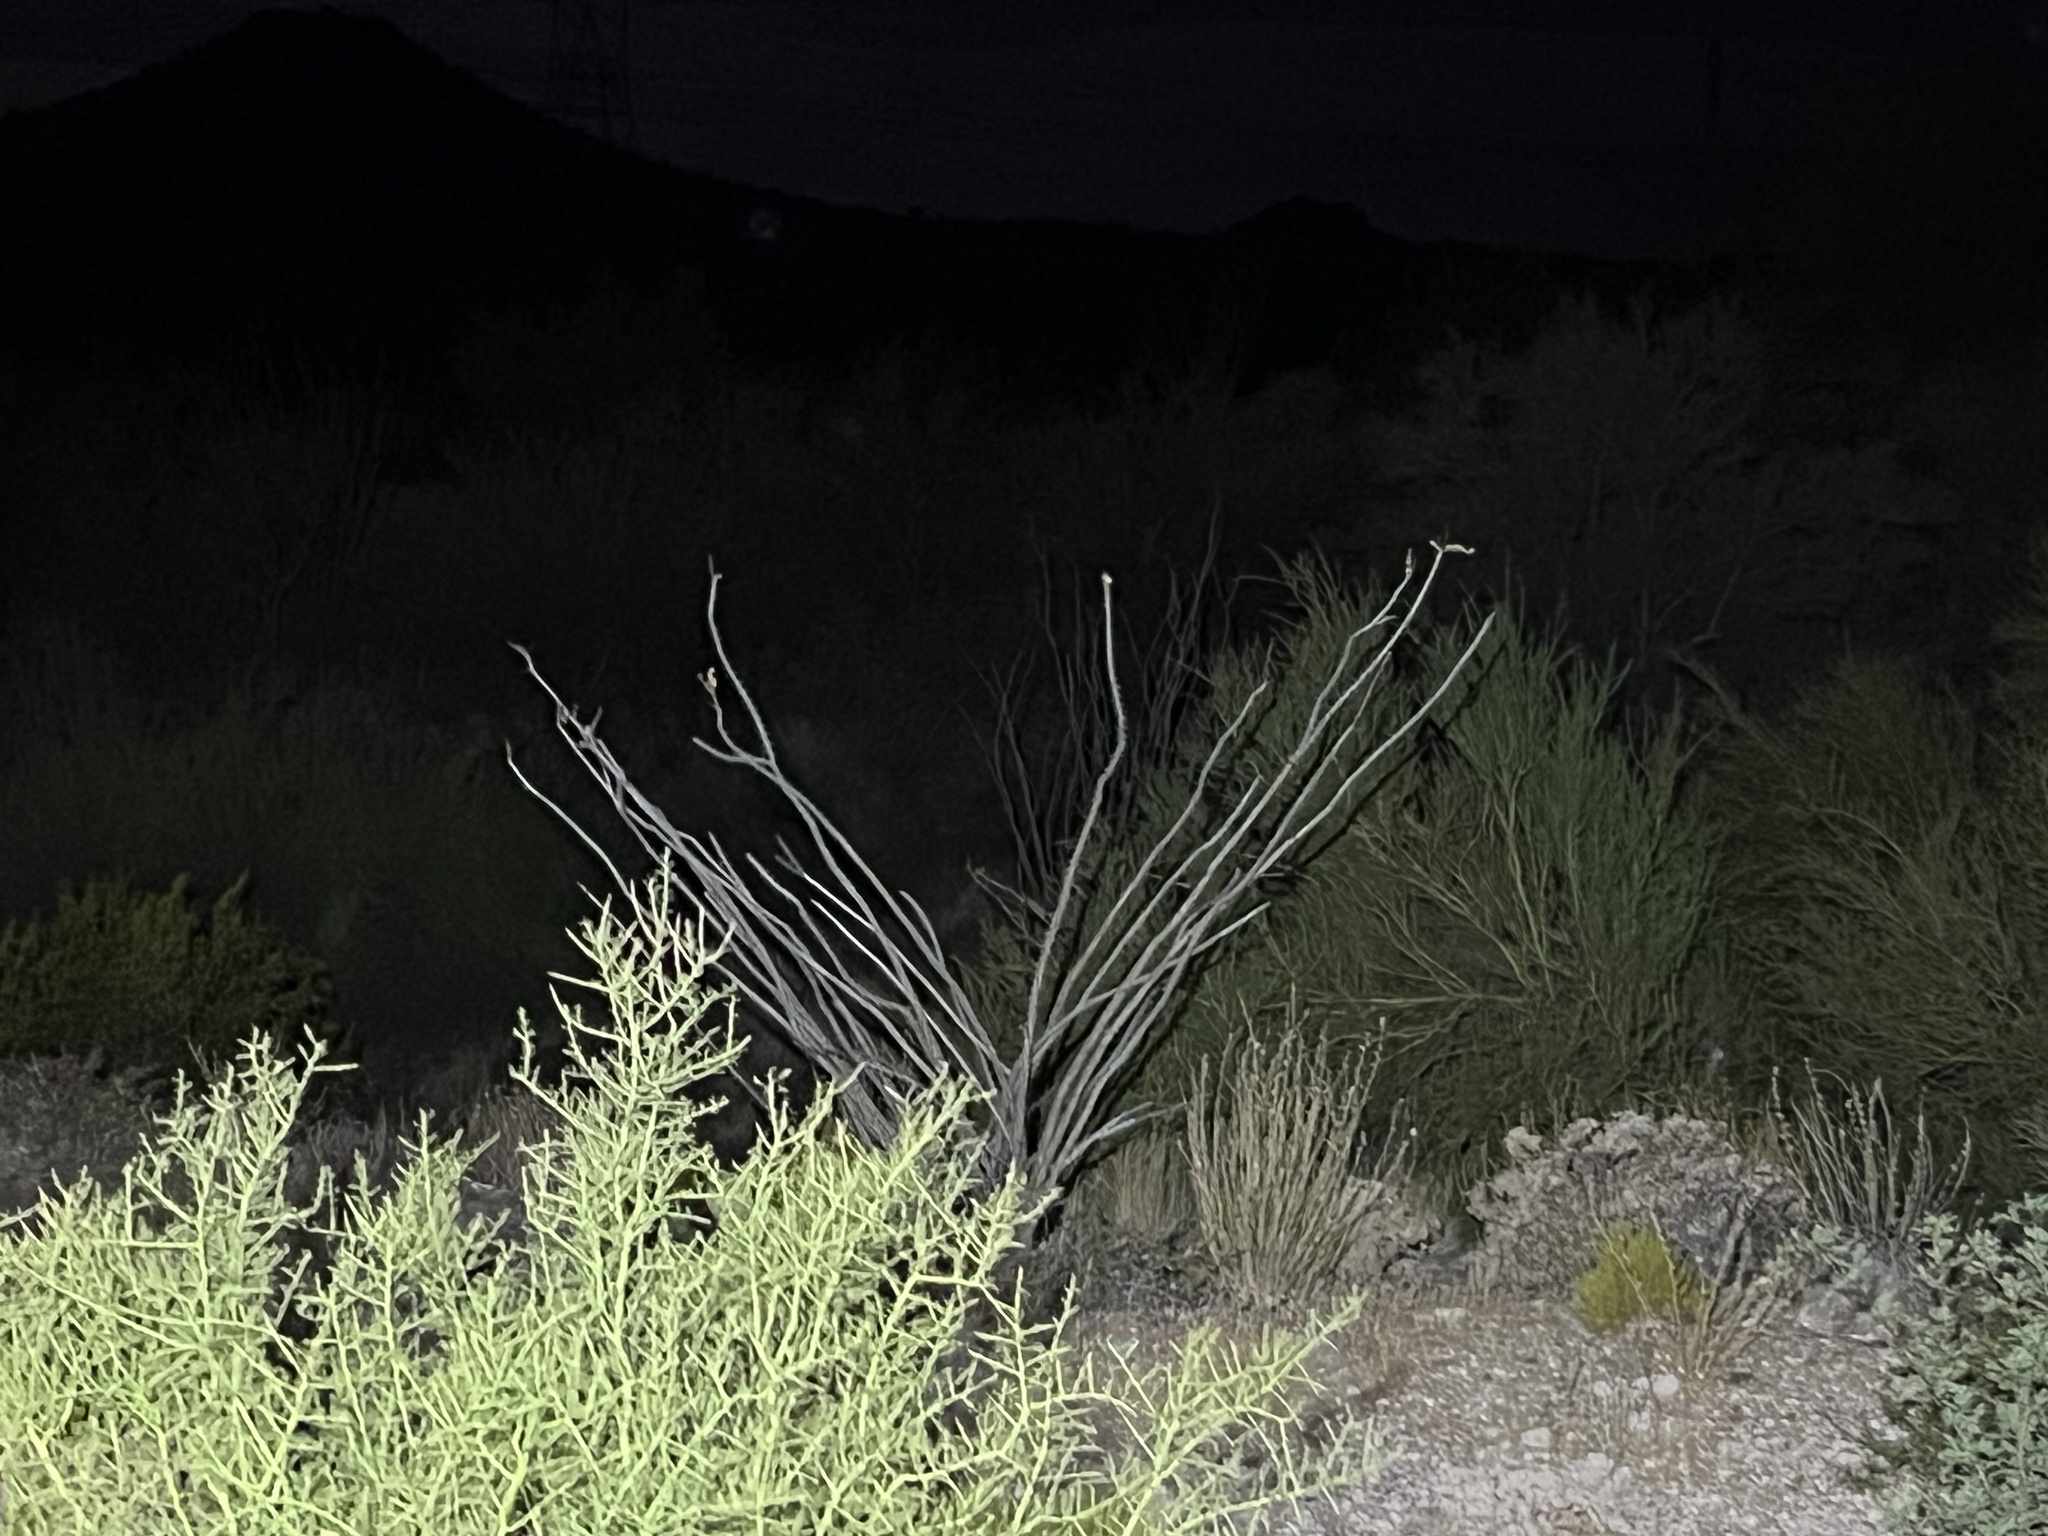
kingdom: Plantae
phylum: Tracheophyta
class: Magnoliopsida
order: Ericales
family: Fouquieriaceae
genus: Fouquieria
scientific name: Fouquieria splendens
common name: Vine-cactus
